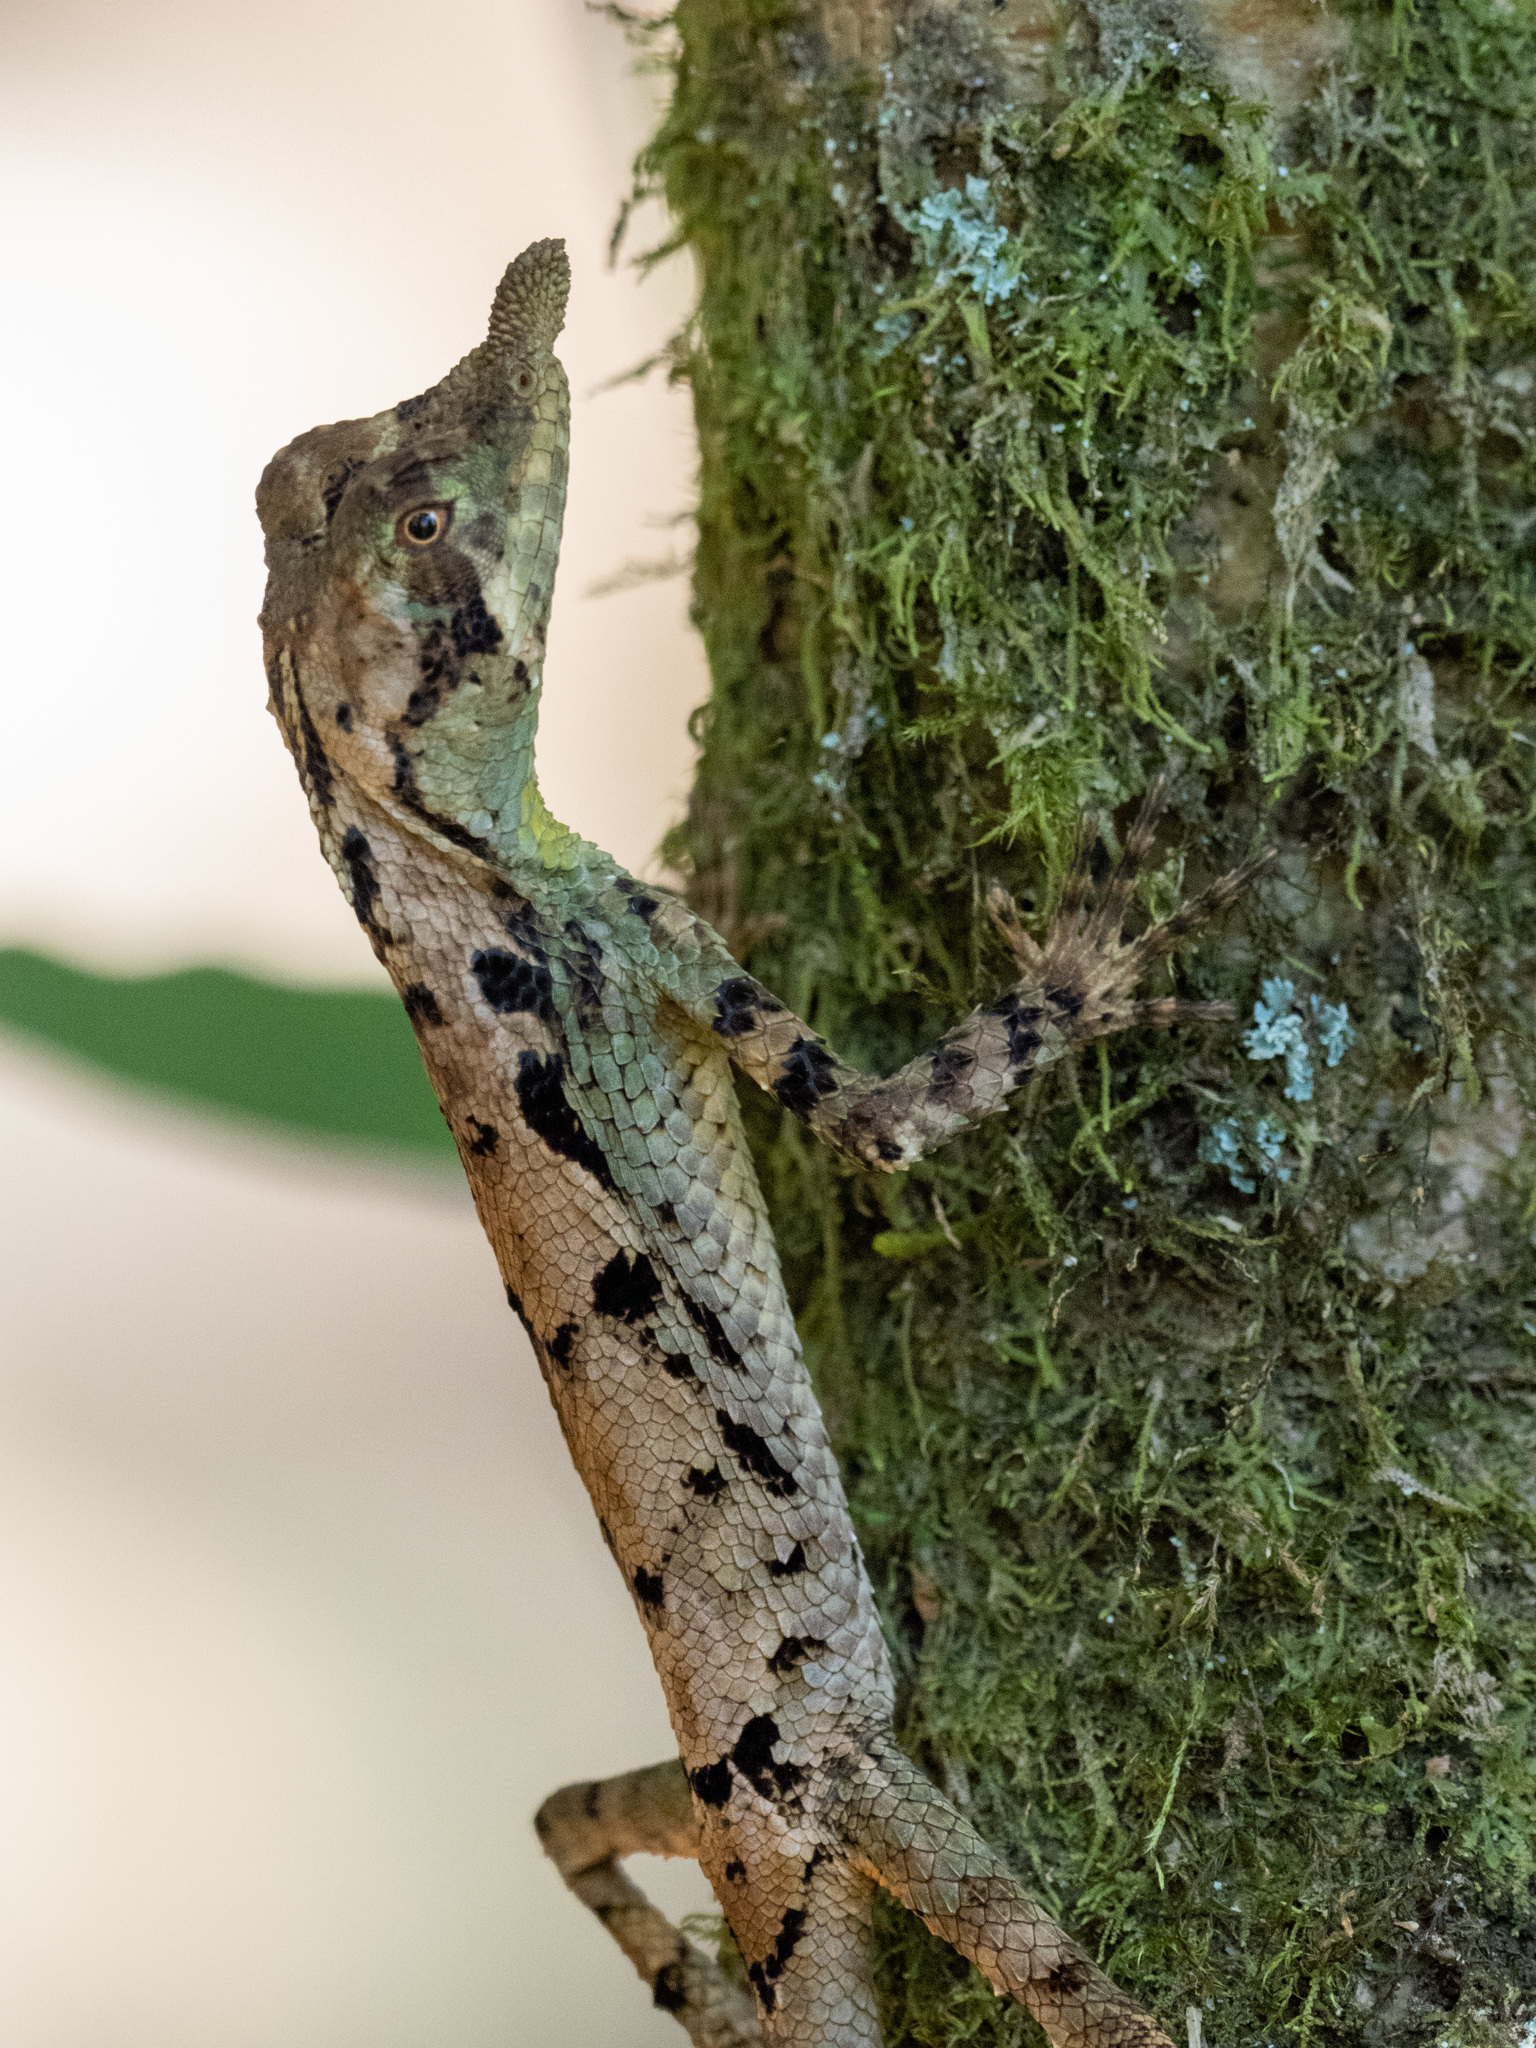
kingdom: Animalia
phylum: Chordata
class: Squamata
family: Agamidae
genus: Ceratophora
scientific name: Ceratophora tennentii
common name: Rhinoceros agama
